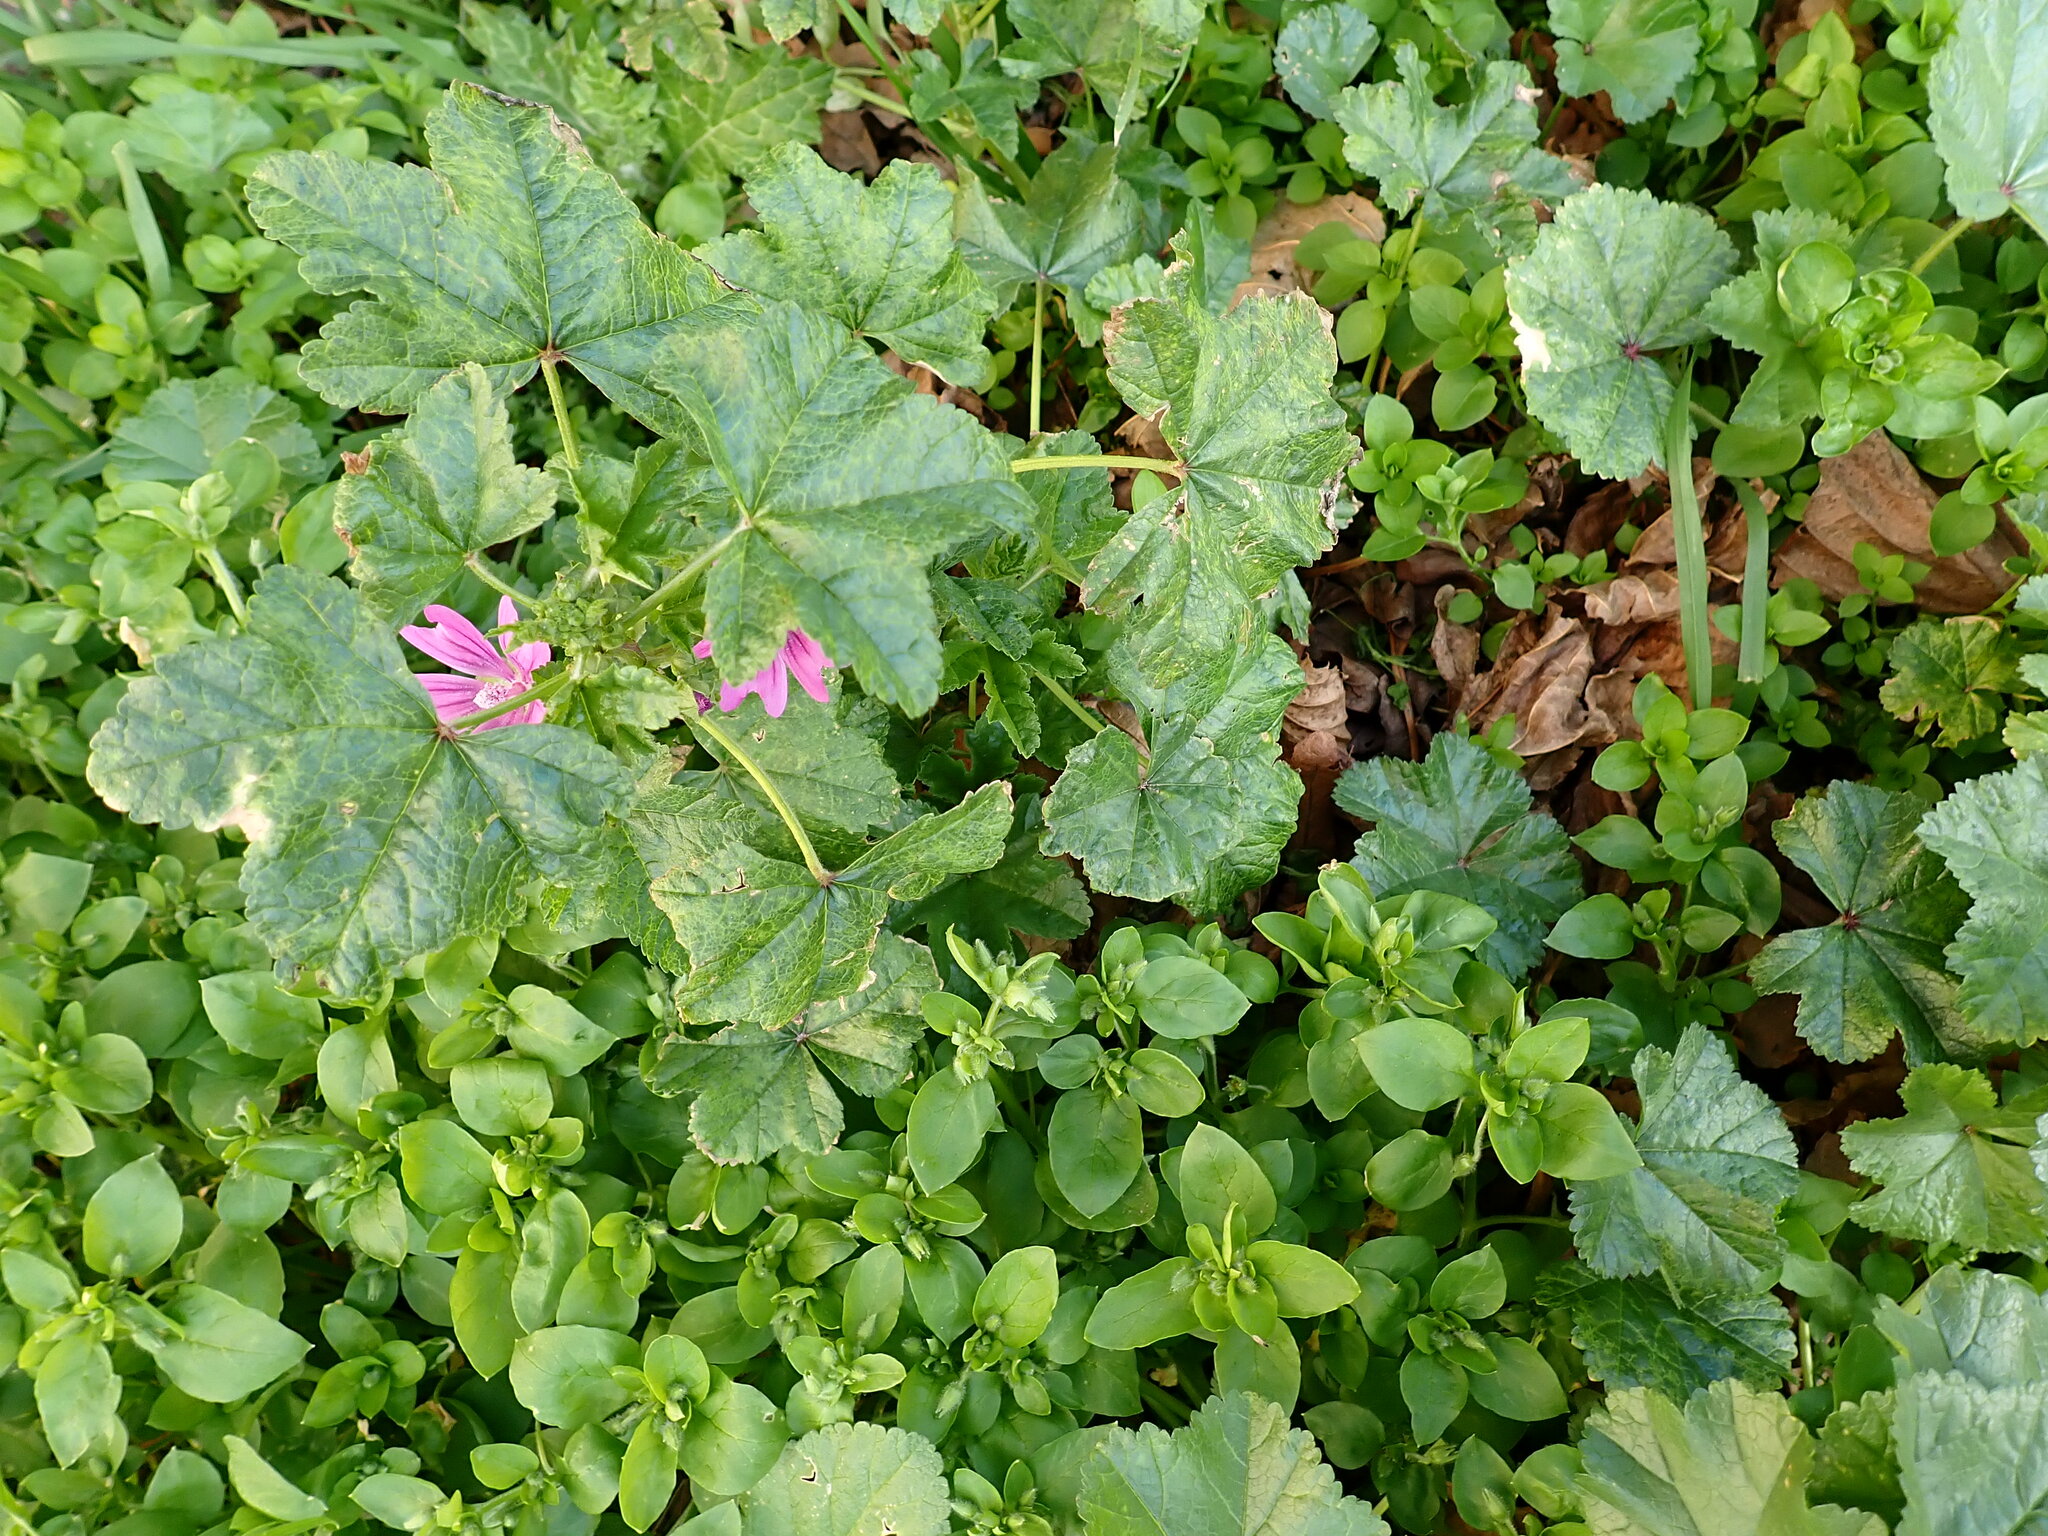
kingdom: Plantae
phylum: Tracheophyta
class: Magnoliopsida
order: Malvales
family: Malvaceae
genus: Malva
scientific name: Malva sylvestris
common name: Common mallow
